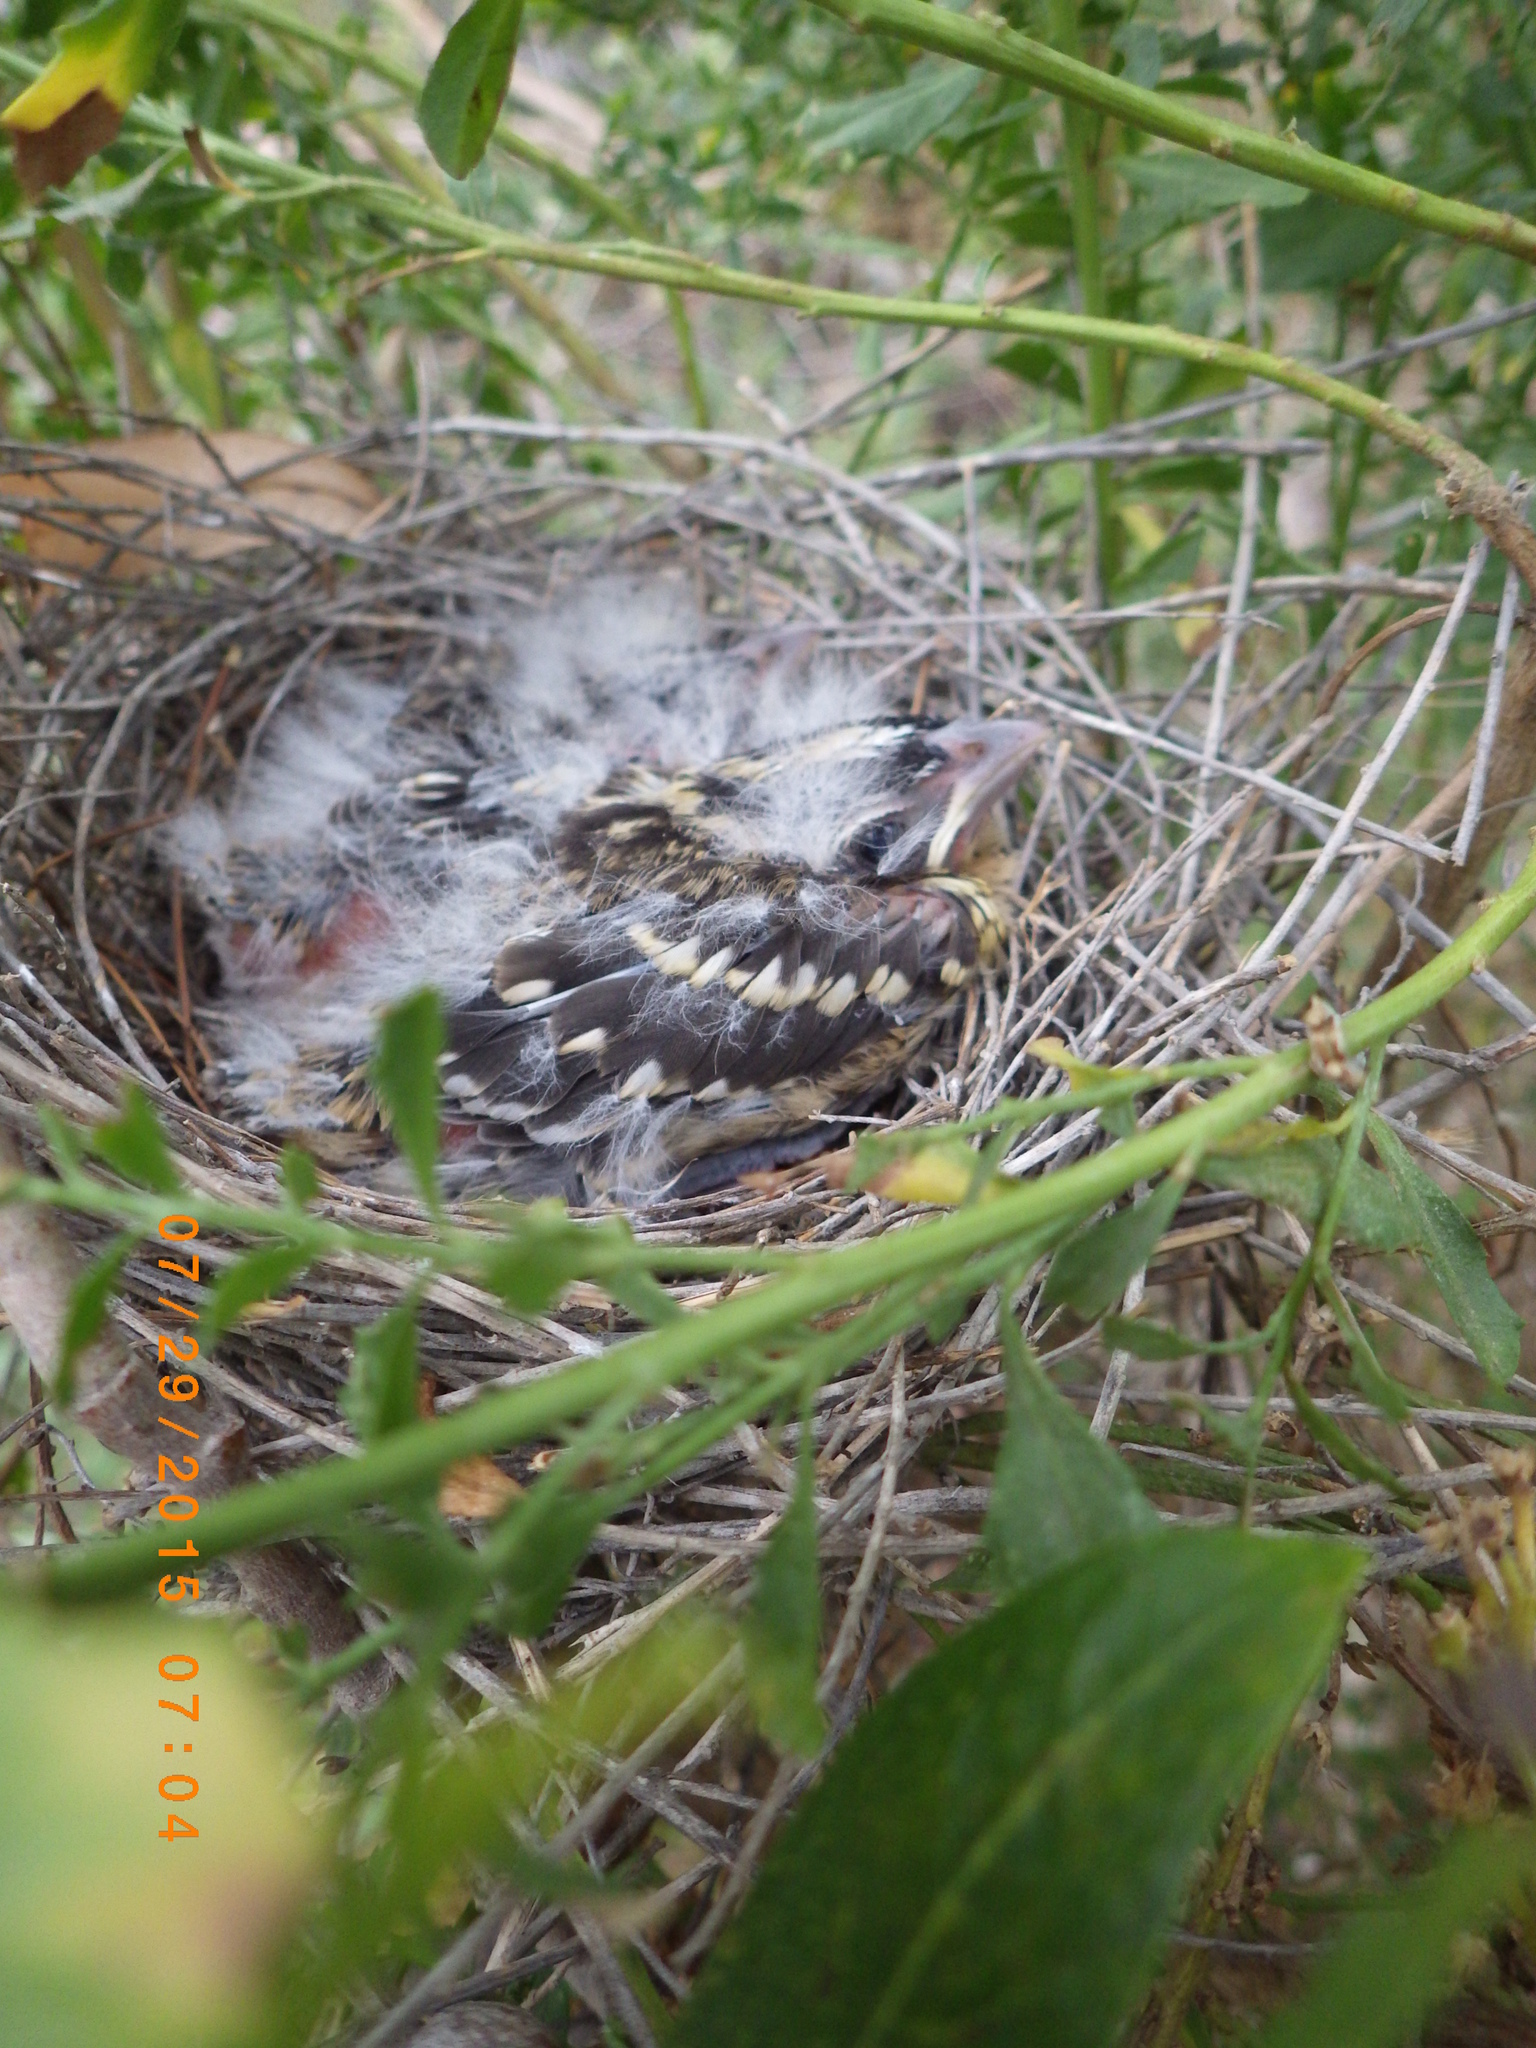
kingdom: Animalia
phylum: Chordata
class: Aves
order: Passeriformes
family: Cardinalidae
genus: Pheucticus
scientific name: Pheucticus melanocephalus
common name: Black-headed grosbeak
